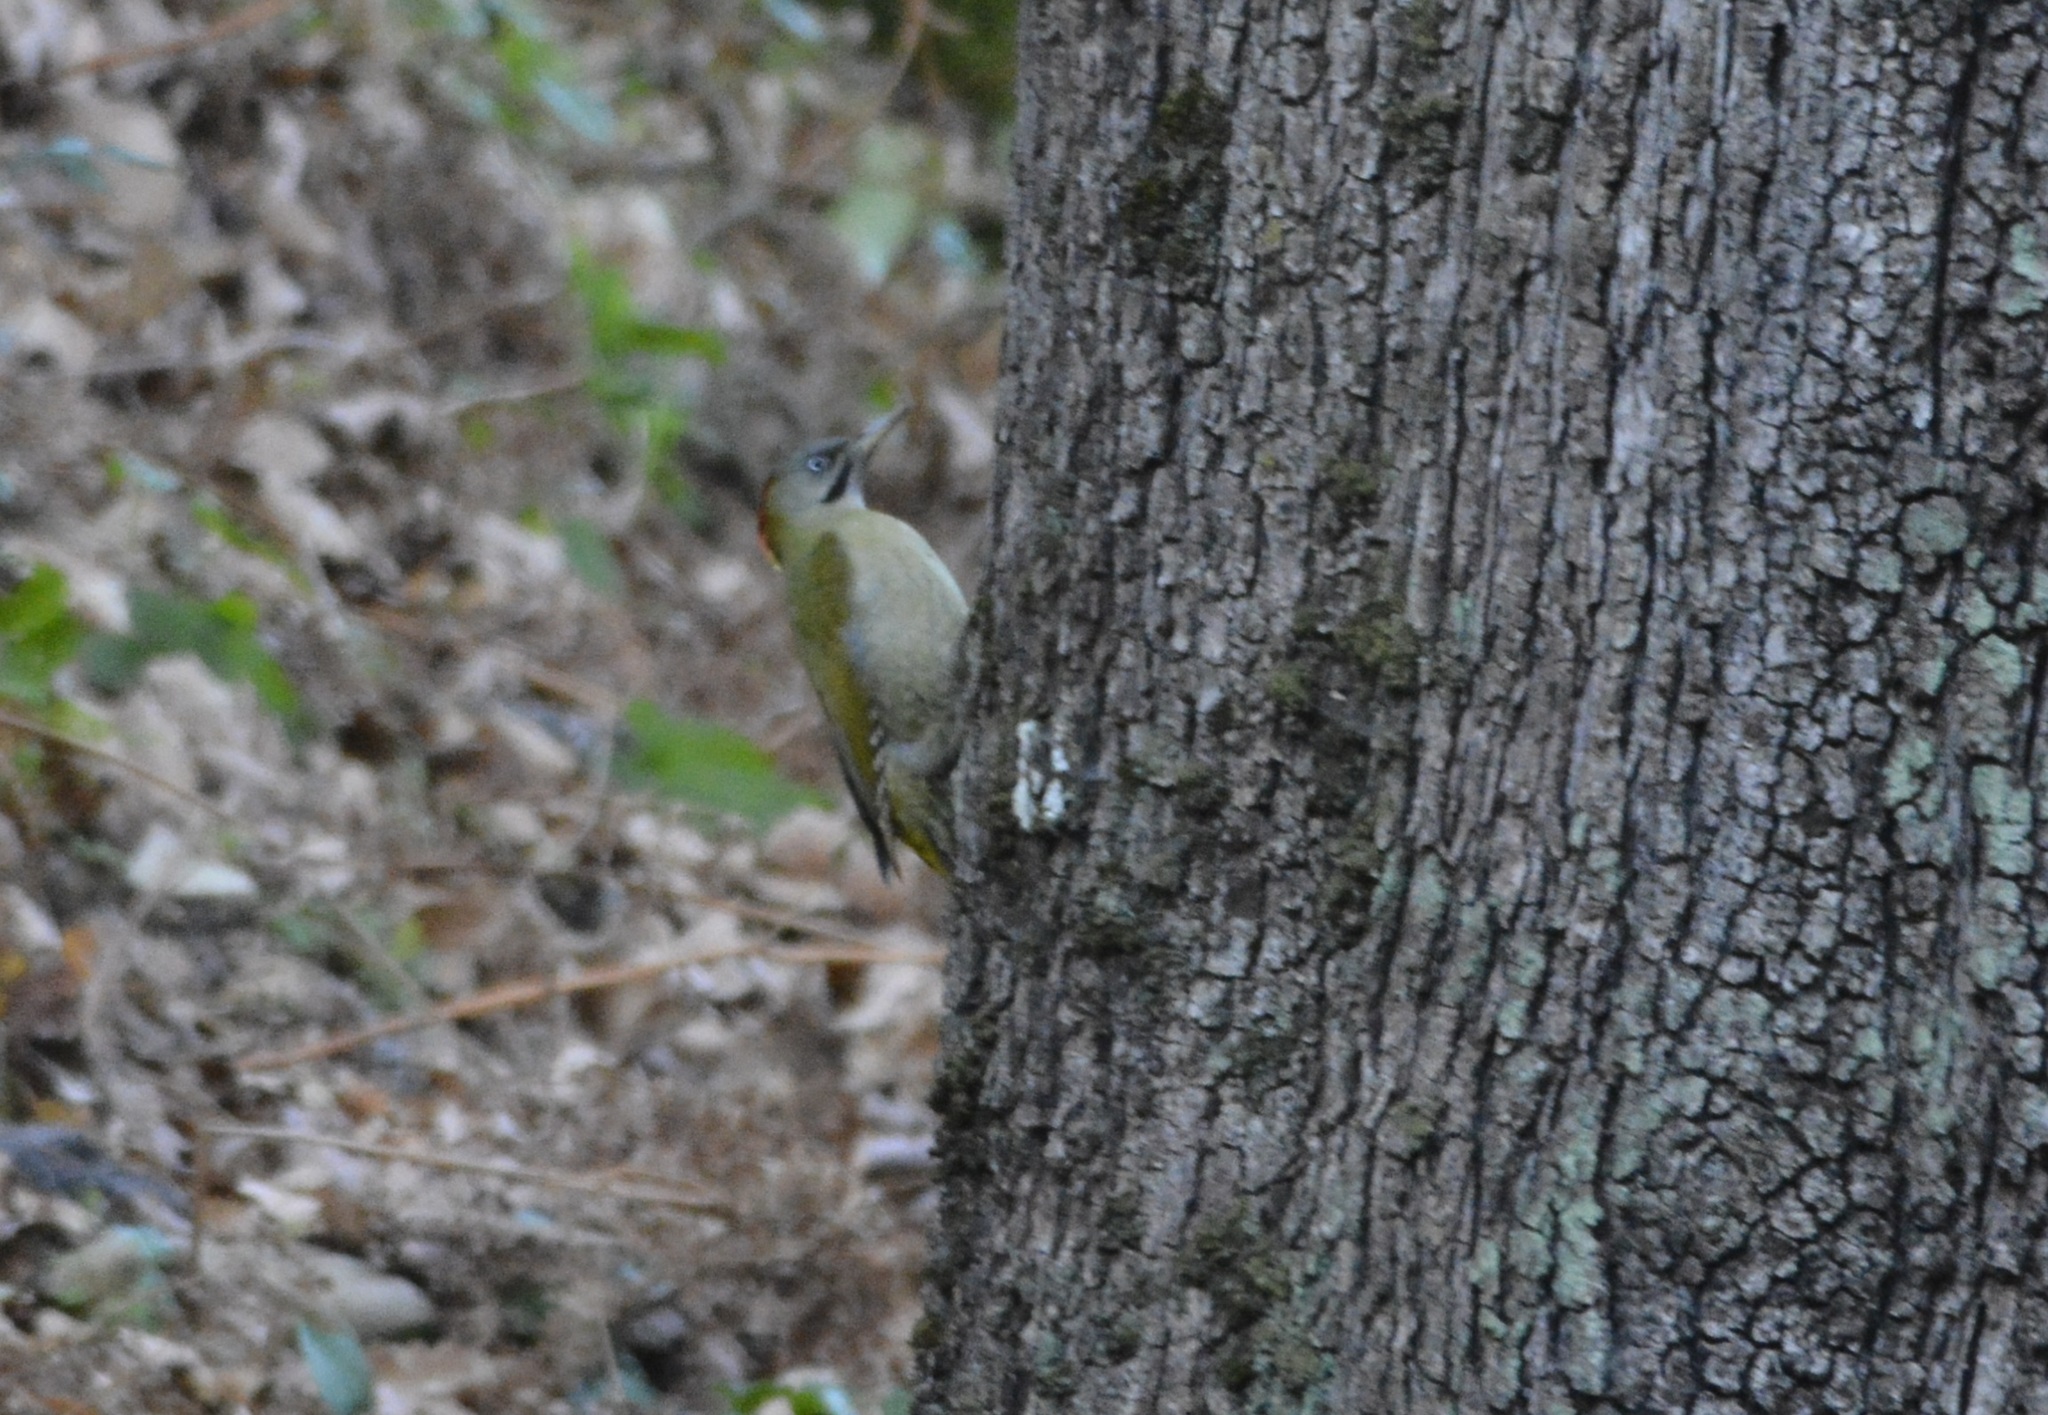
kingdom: Animalia
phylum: Chordata
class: Aves
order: Piciformes
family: Picidae
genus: Picus
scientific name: Picus vaillantii
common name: Levaillant's woodpecker
